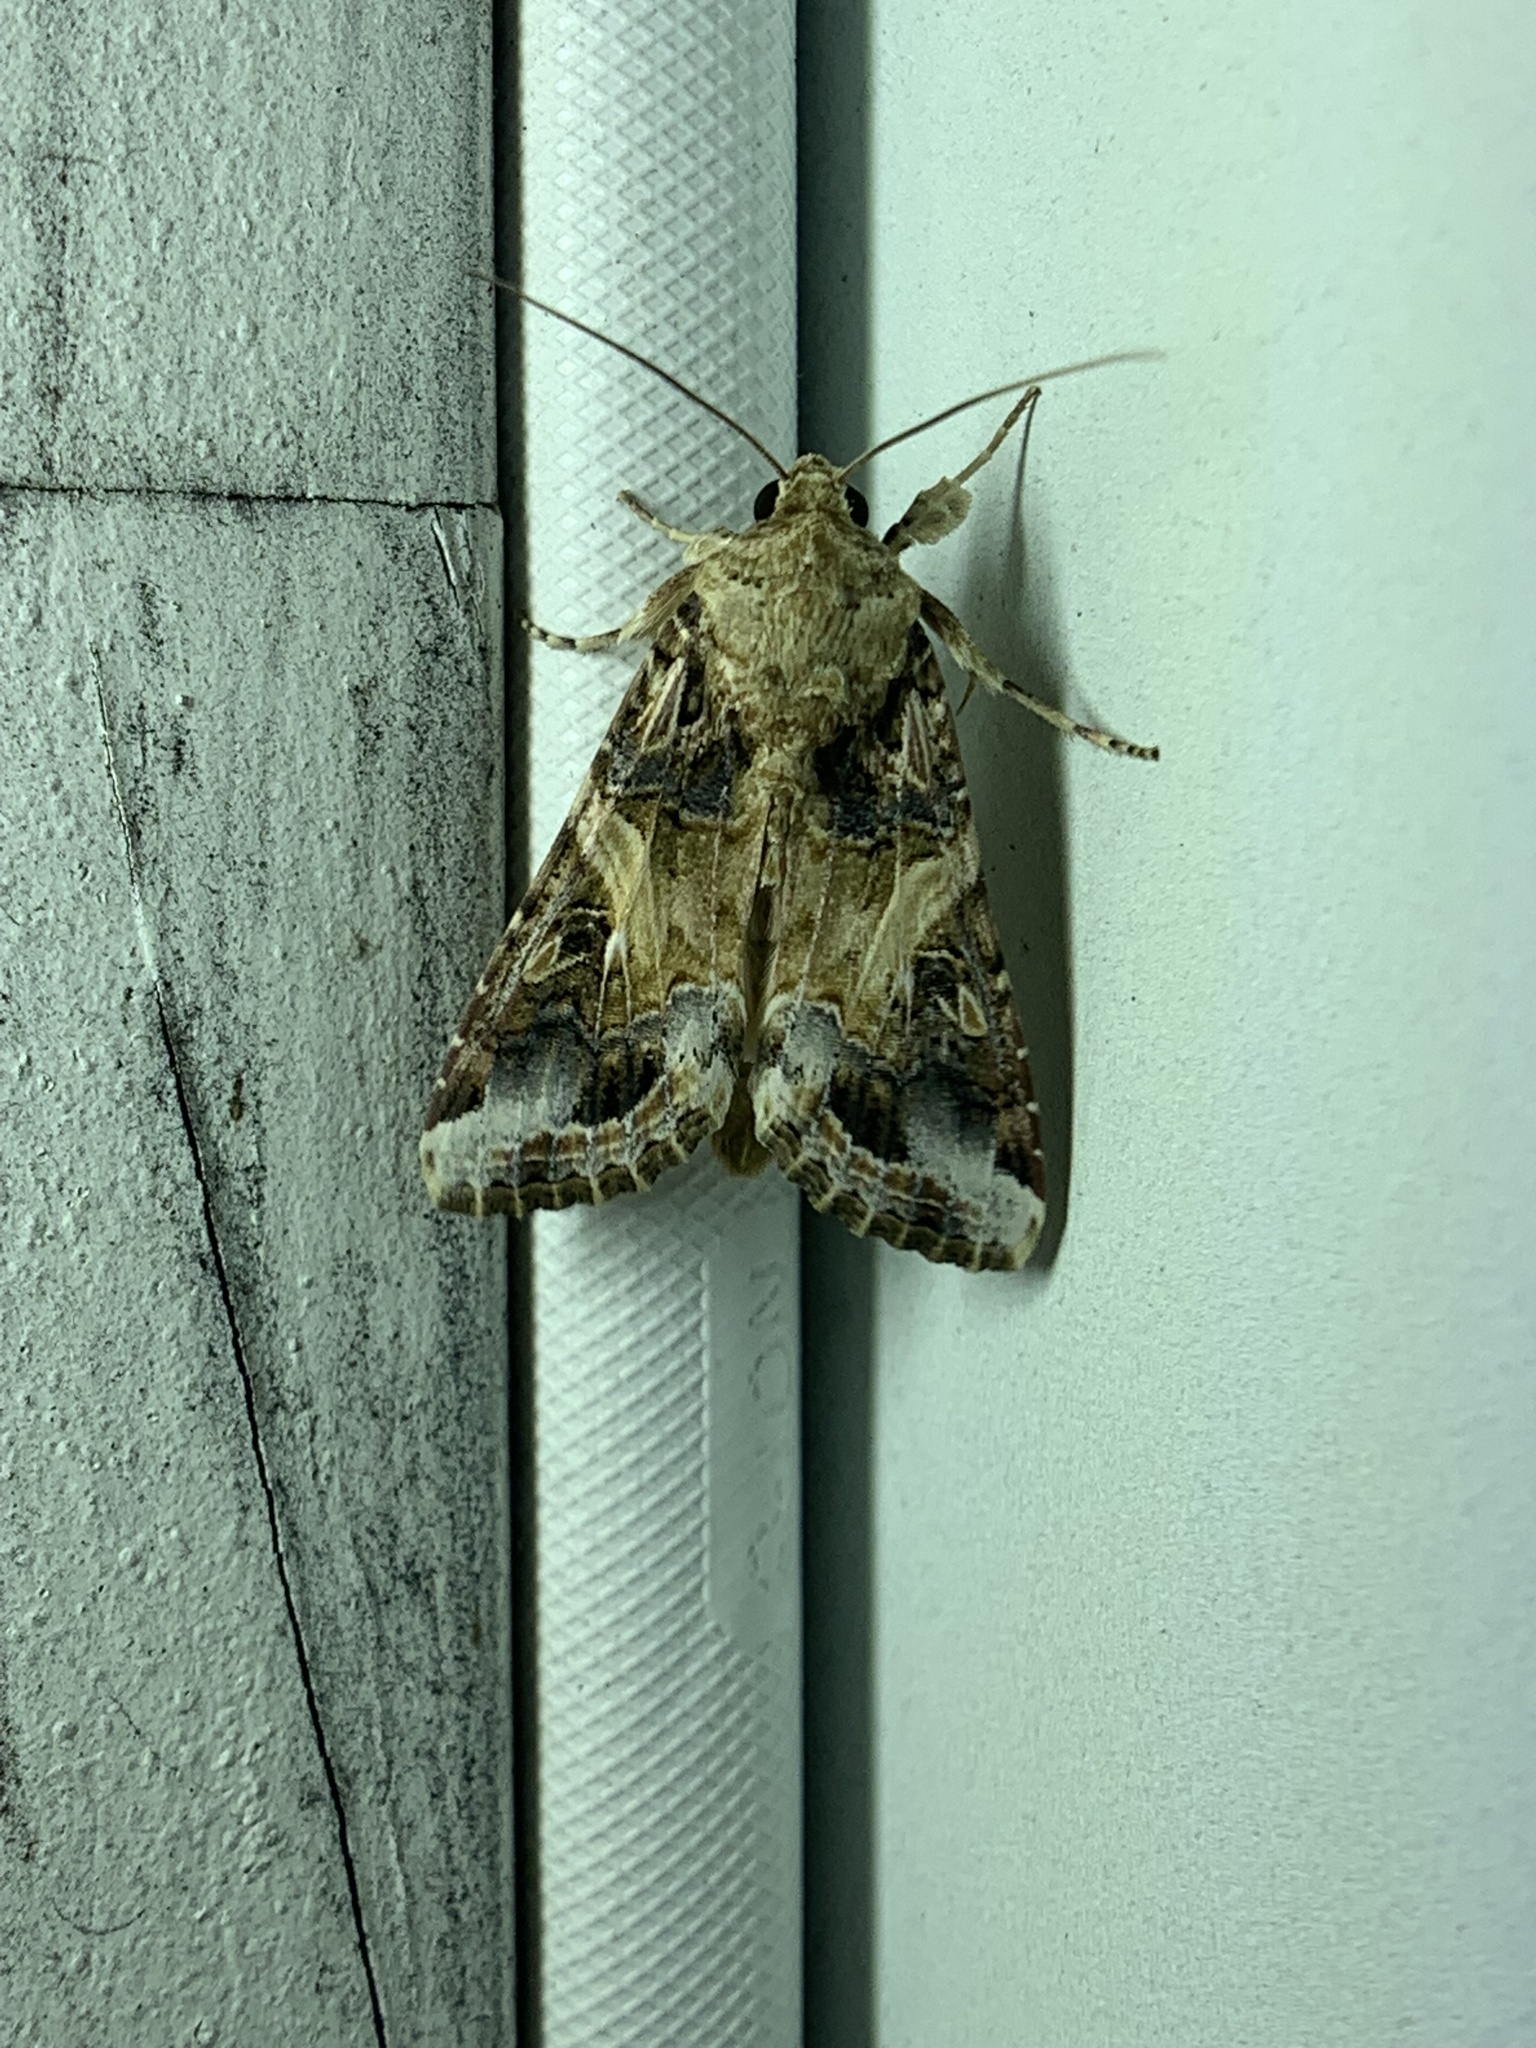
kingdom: Animalia
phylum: Arthropoda
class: Insecta
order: Lepidoptera
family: Noctuidae
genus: Spodoptera
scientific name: Spodoptera ornithogalli
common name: Yellow-striped armyworm
